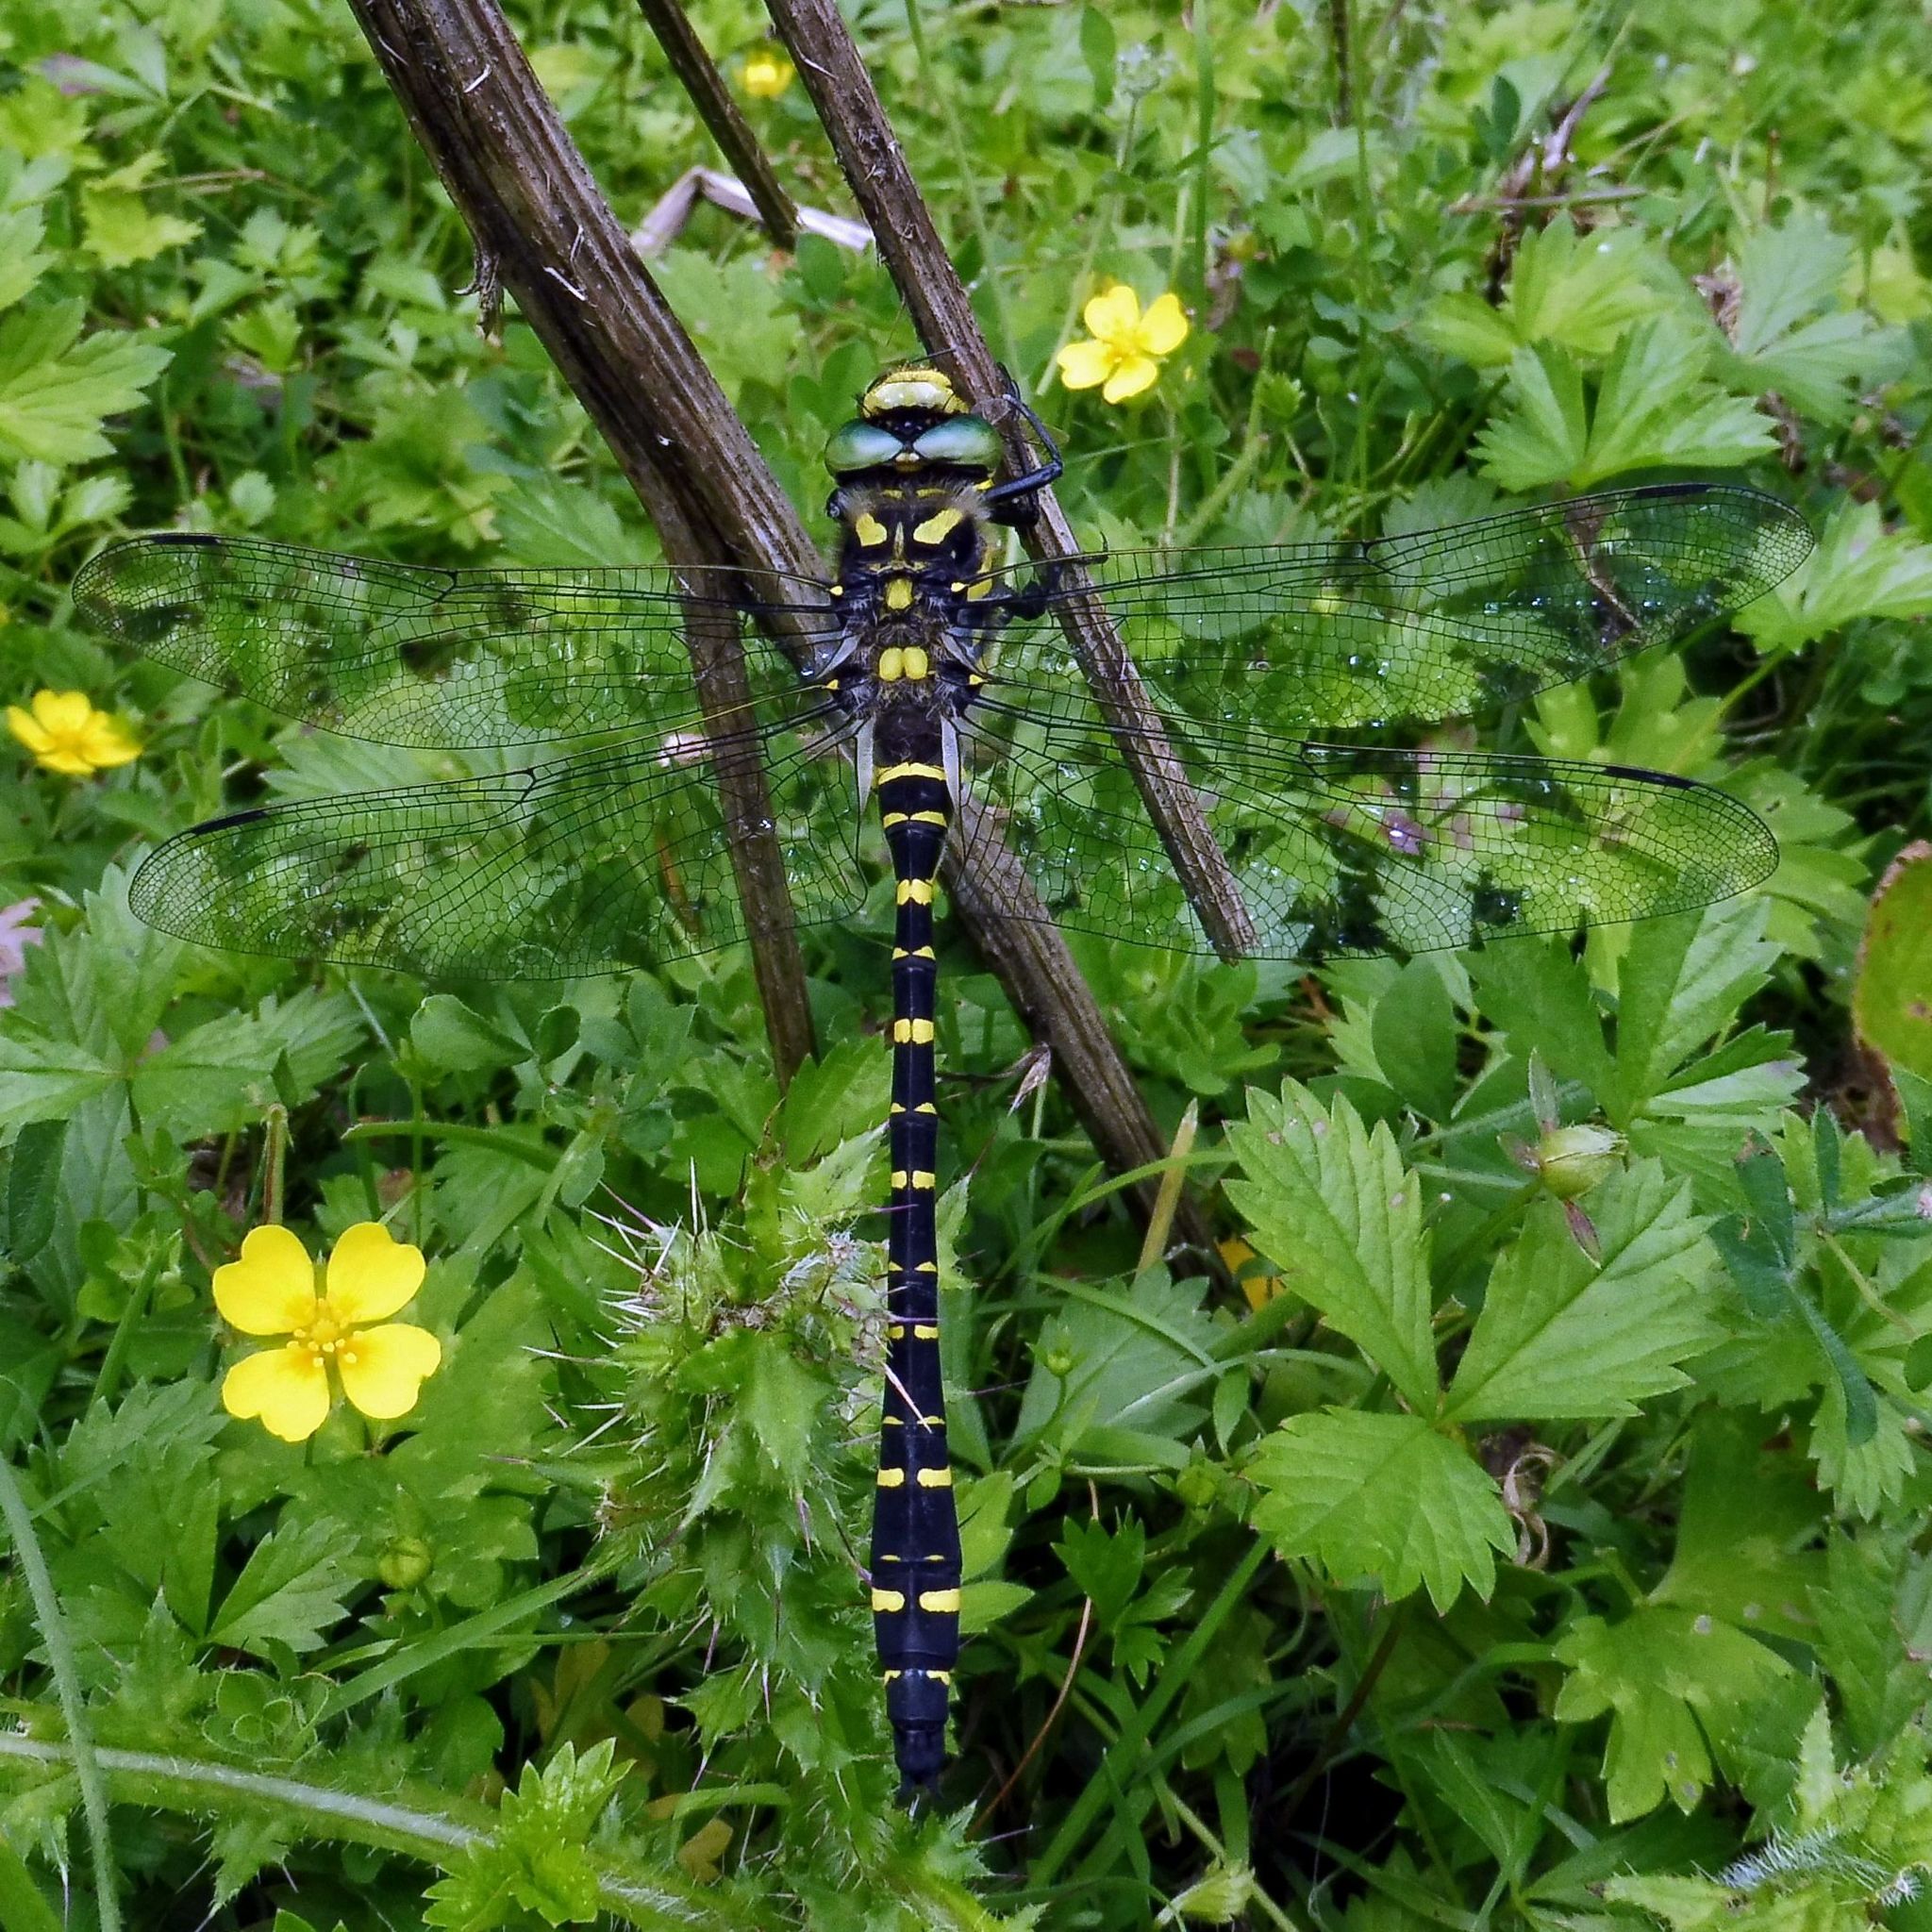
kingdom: Animalia
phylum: Arthropoda
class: Insecta
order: Odonata
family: Cordulegastridae
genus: Cordulegaster
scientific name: Cordulegaster boltonii
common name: Golden-ringed dragonfly
